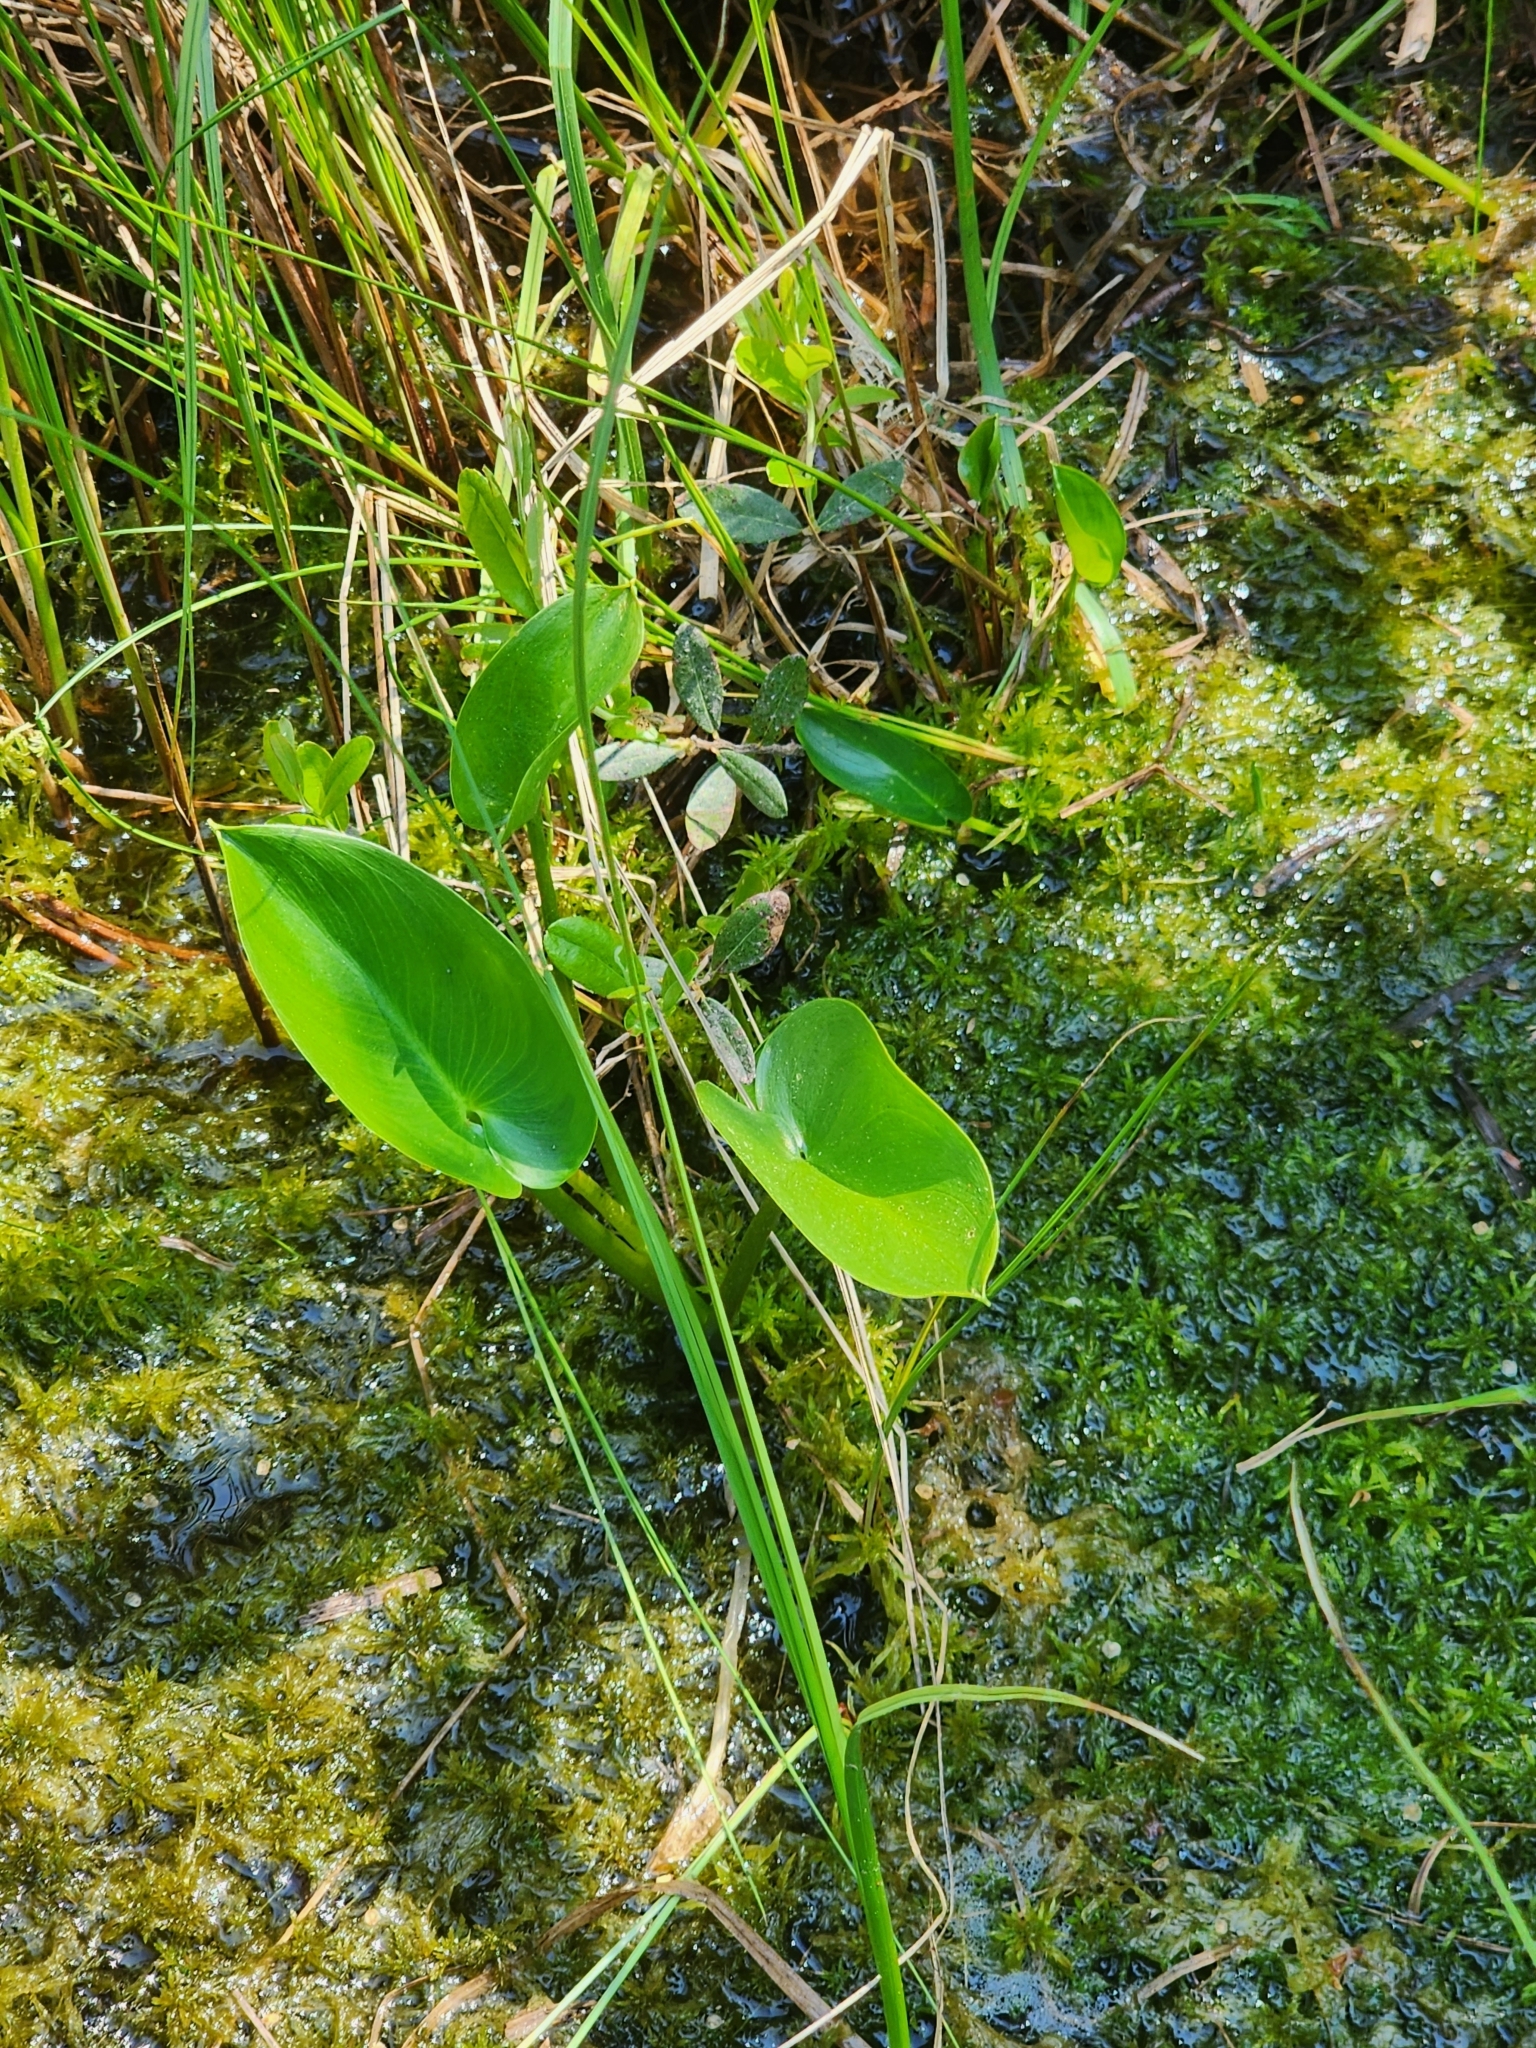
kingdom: Plantae
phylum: Tracheophyta
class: Liliopsida
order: Alismatales
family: Araceae
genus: Calla
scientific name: Calla palustris
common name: Bog arum
